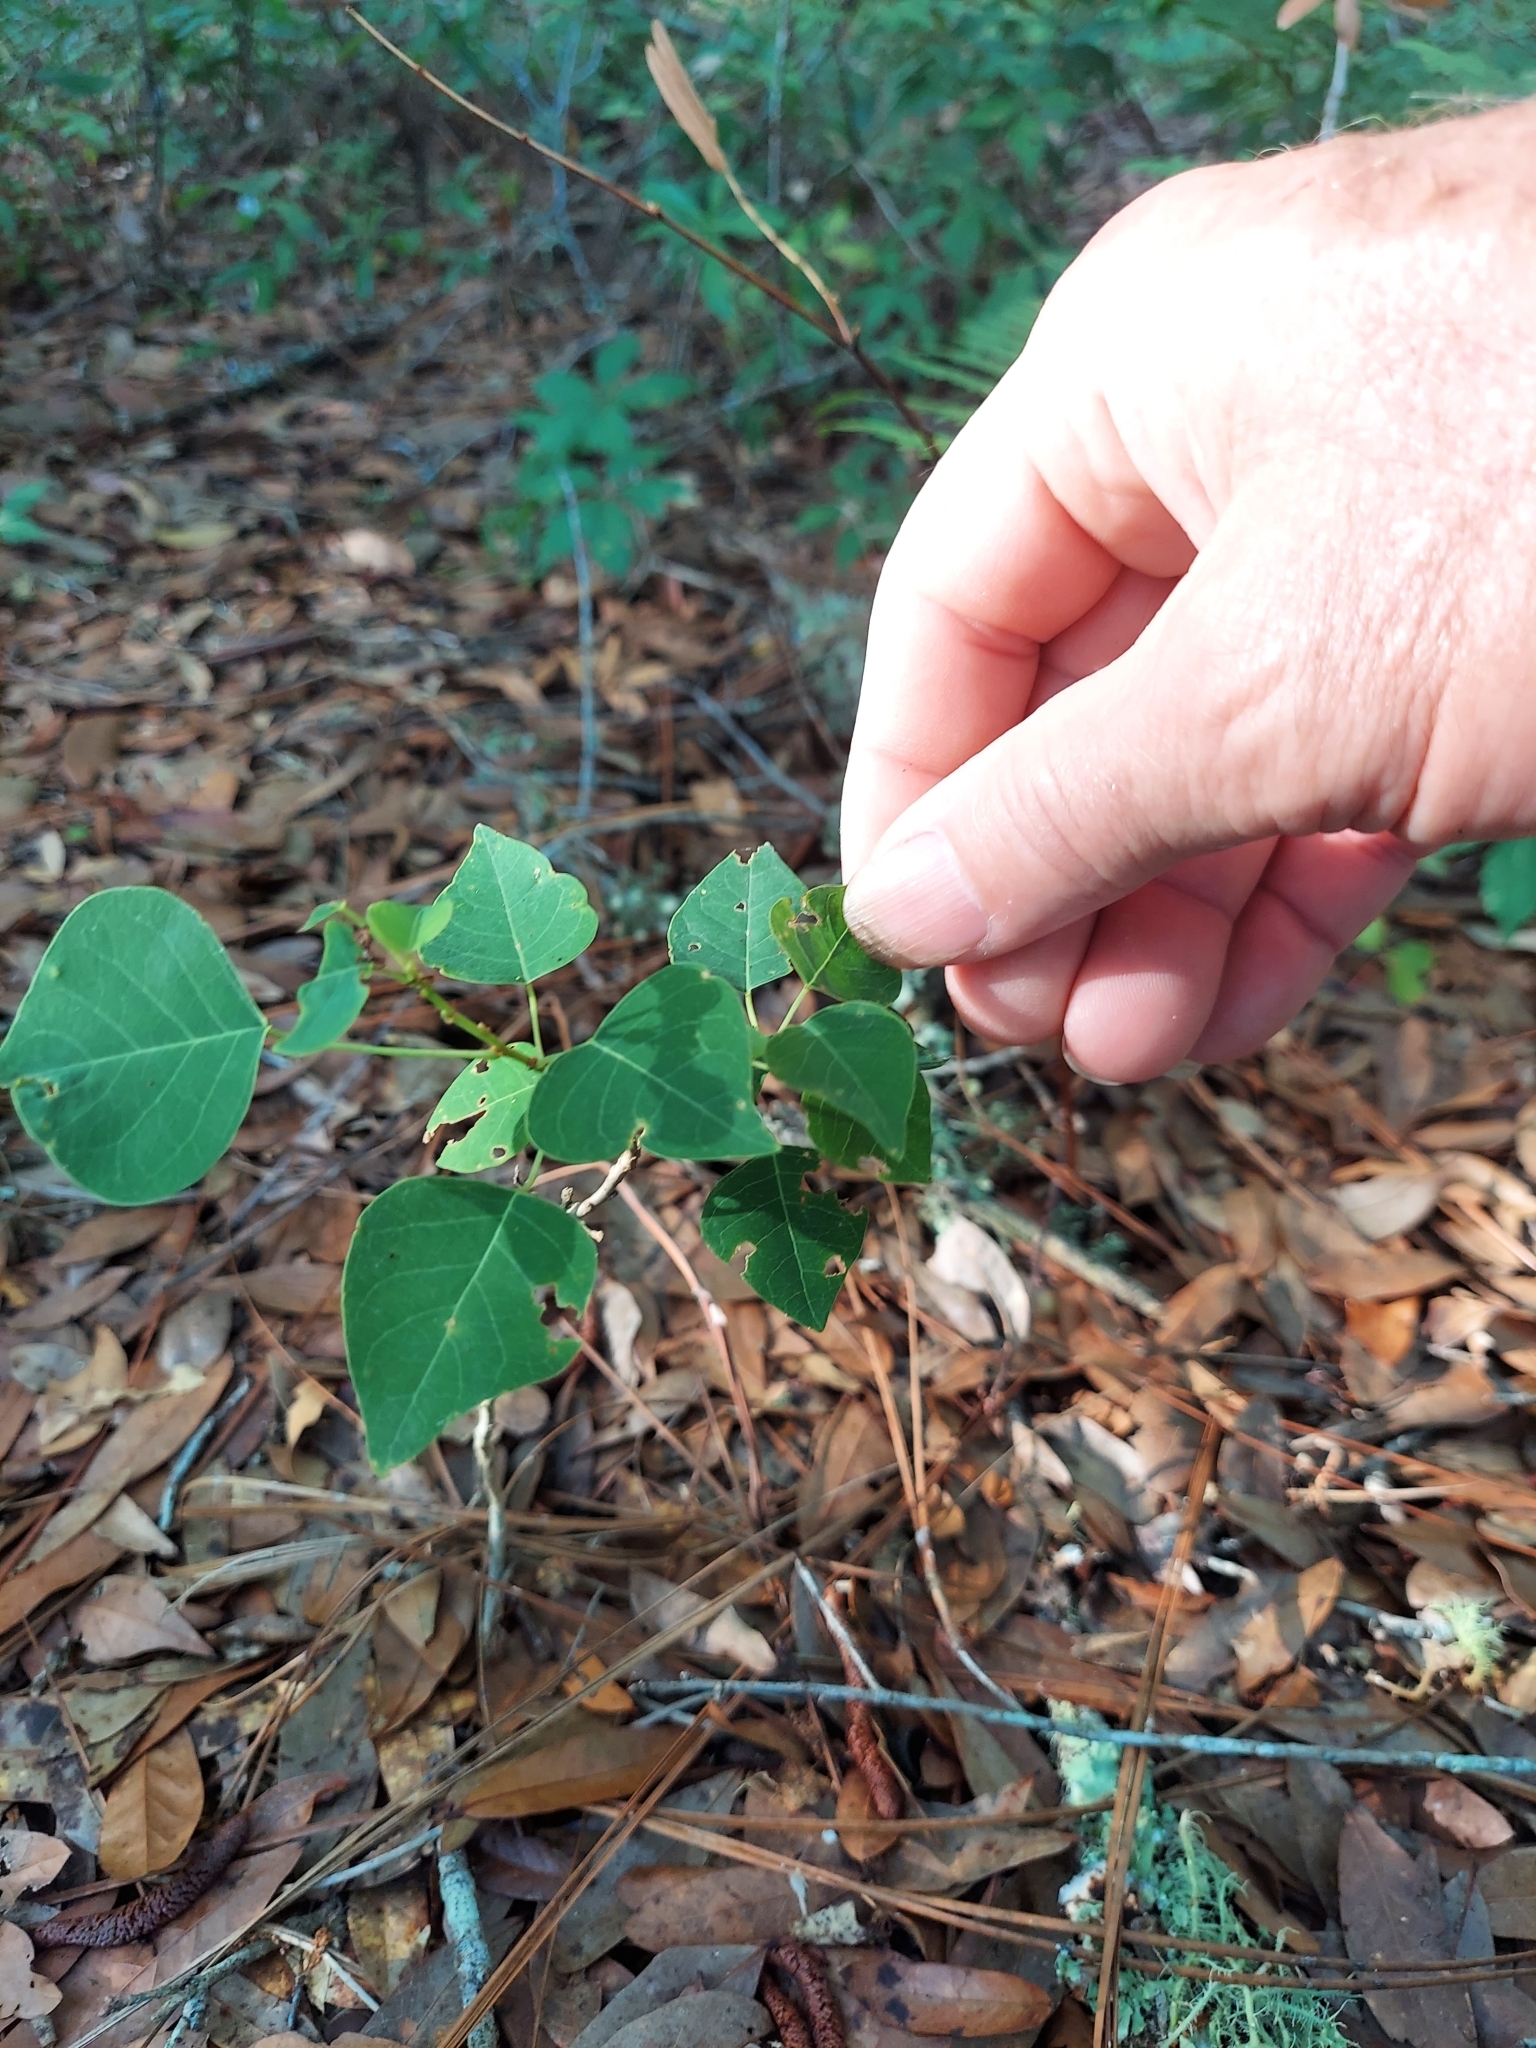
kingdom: Plantae
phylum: Tracheophyta
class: Magnoliopsida
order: Malpighiales
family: Euphorbiaceae
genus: Triadica
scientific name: Triadica sebifera
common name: Chinese tallow
